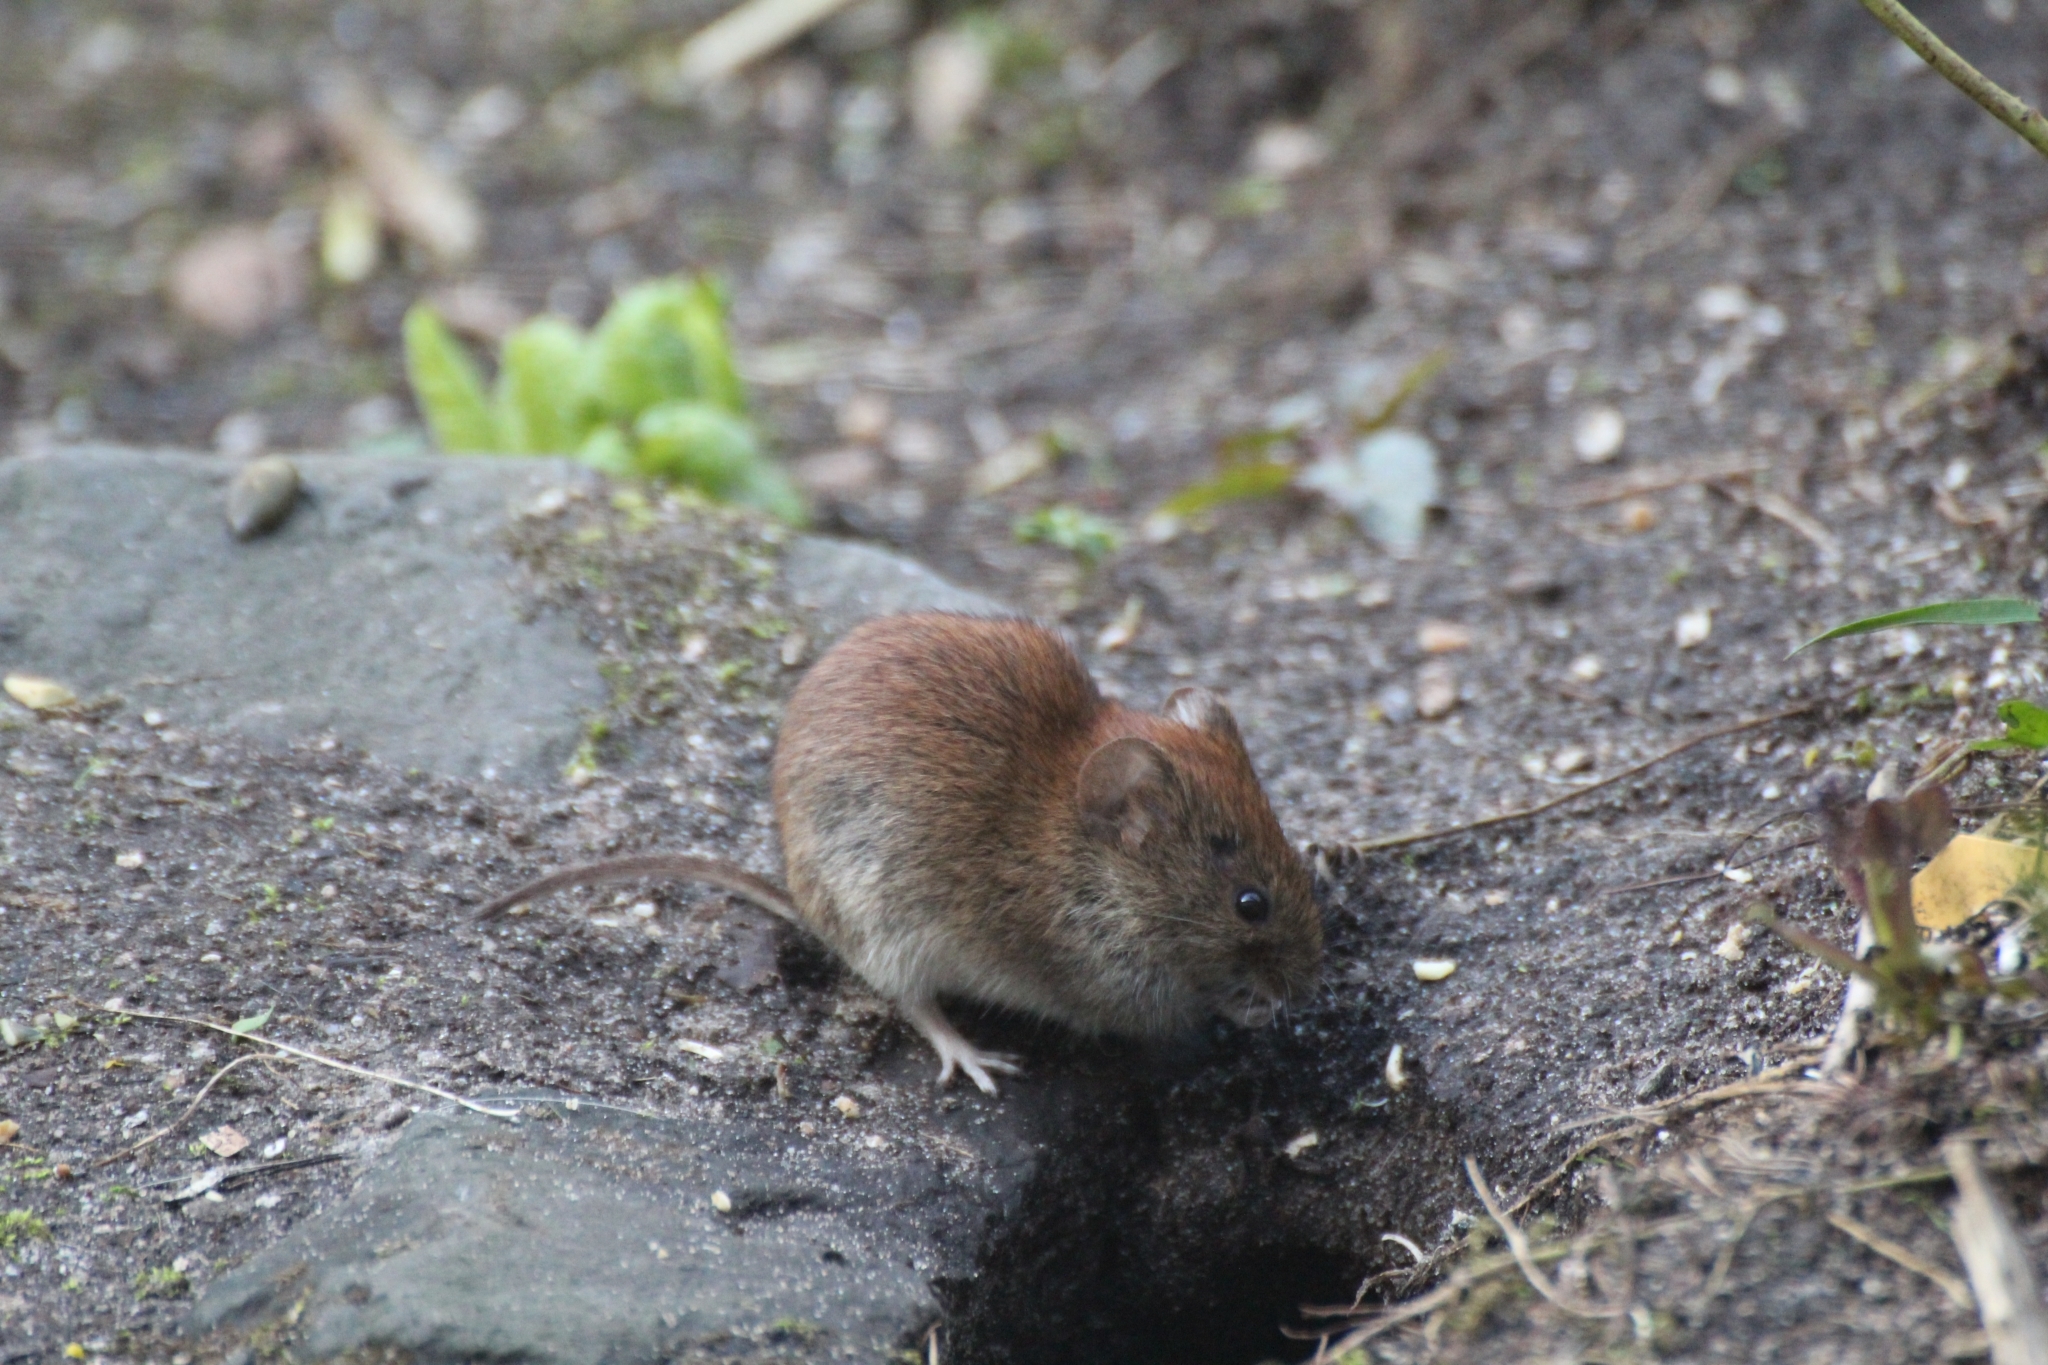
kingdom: Animalia
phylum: Chordata
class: Mammalia
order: Rodentia
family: Cricetidae
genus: Myodes
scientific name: Myodes glareolus
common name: Bank vole
